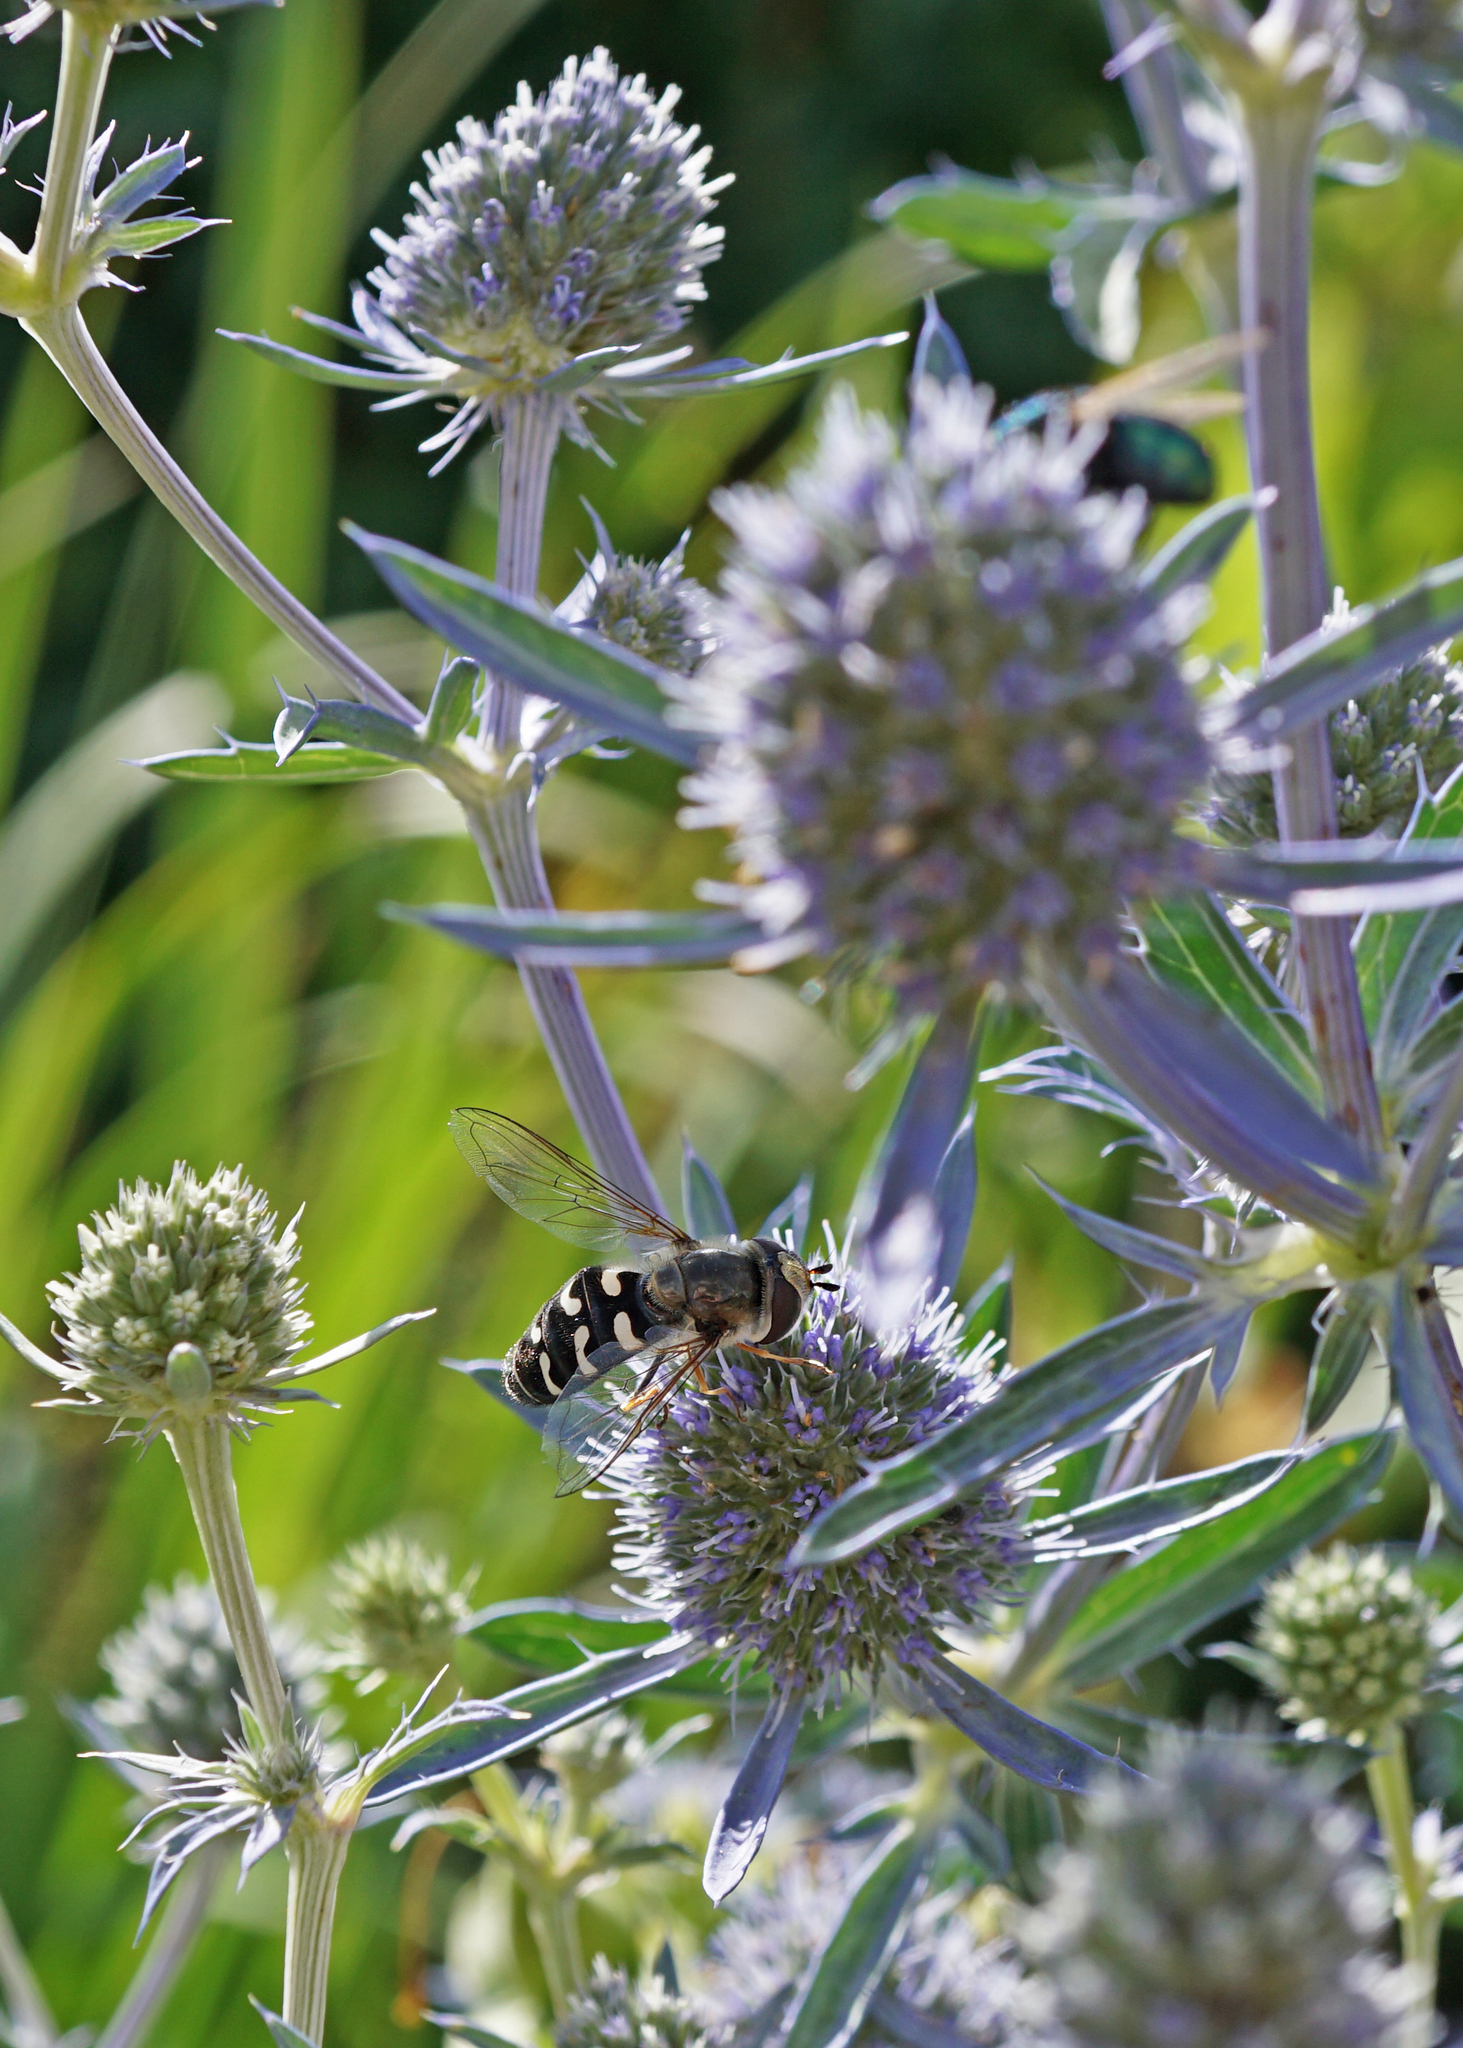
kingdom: Animalia
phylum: Arthropoda
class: Insecta
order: Diptera
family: Syrphidae
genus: Scaeva
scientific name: Scaeva pyrastri
